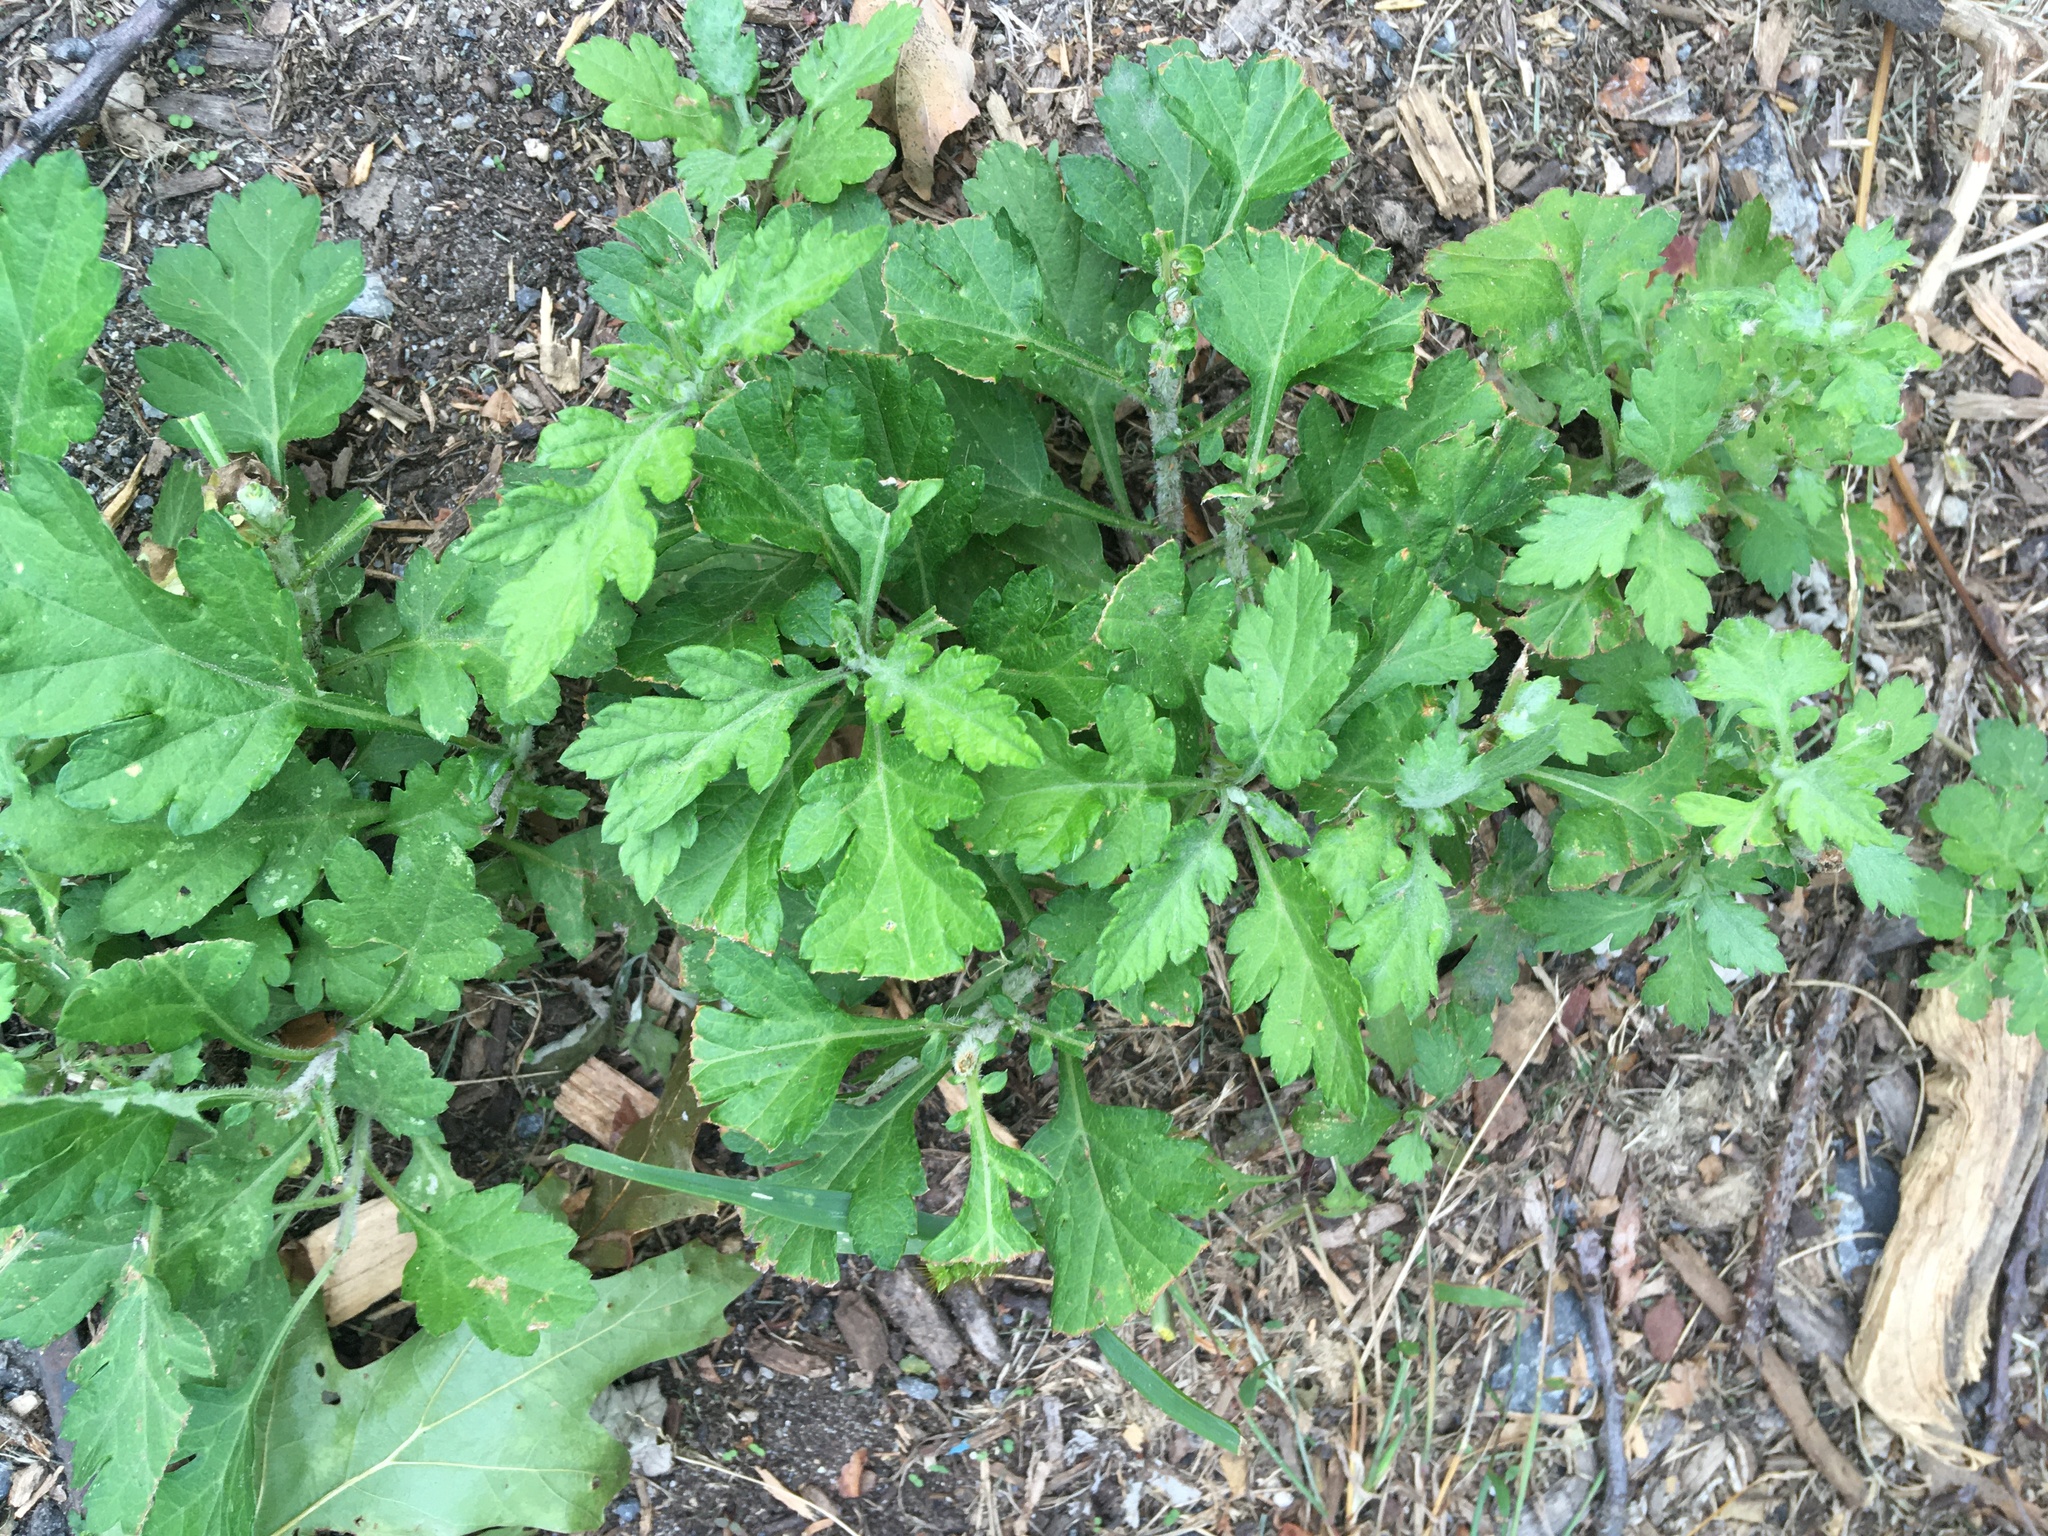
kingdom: Plantae
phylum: Tracheophyta
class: Magnoliopsida
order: Asterales
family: Asteraceae
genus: Artemisia
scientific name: Artemisia vulgaris
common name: Mugwort
